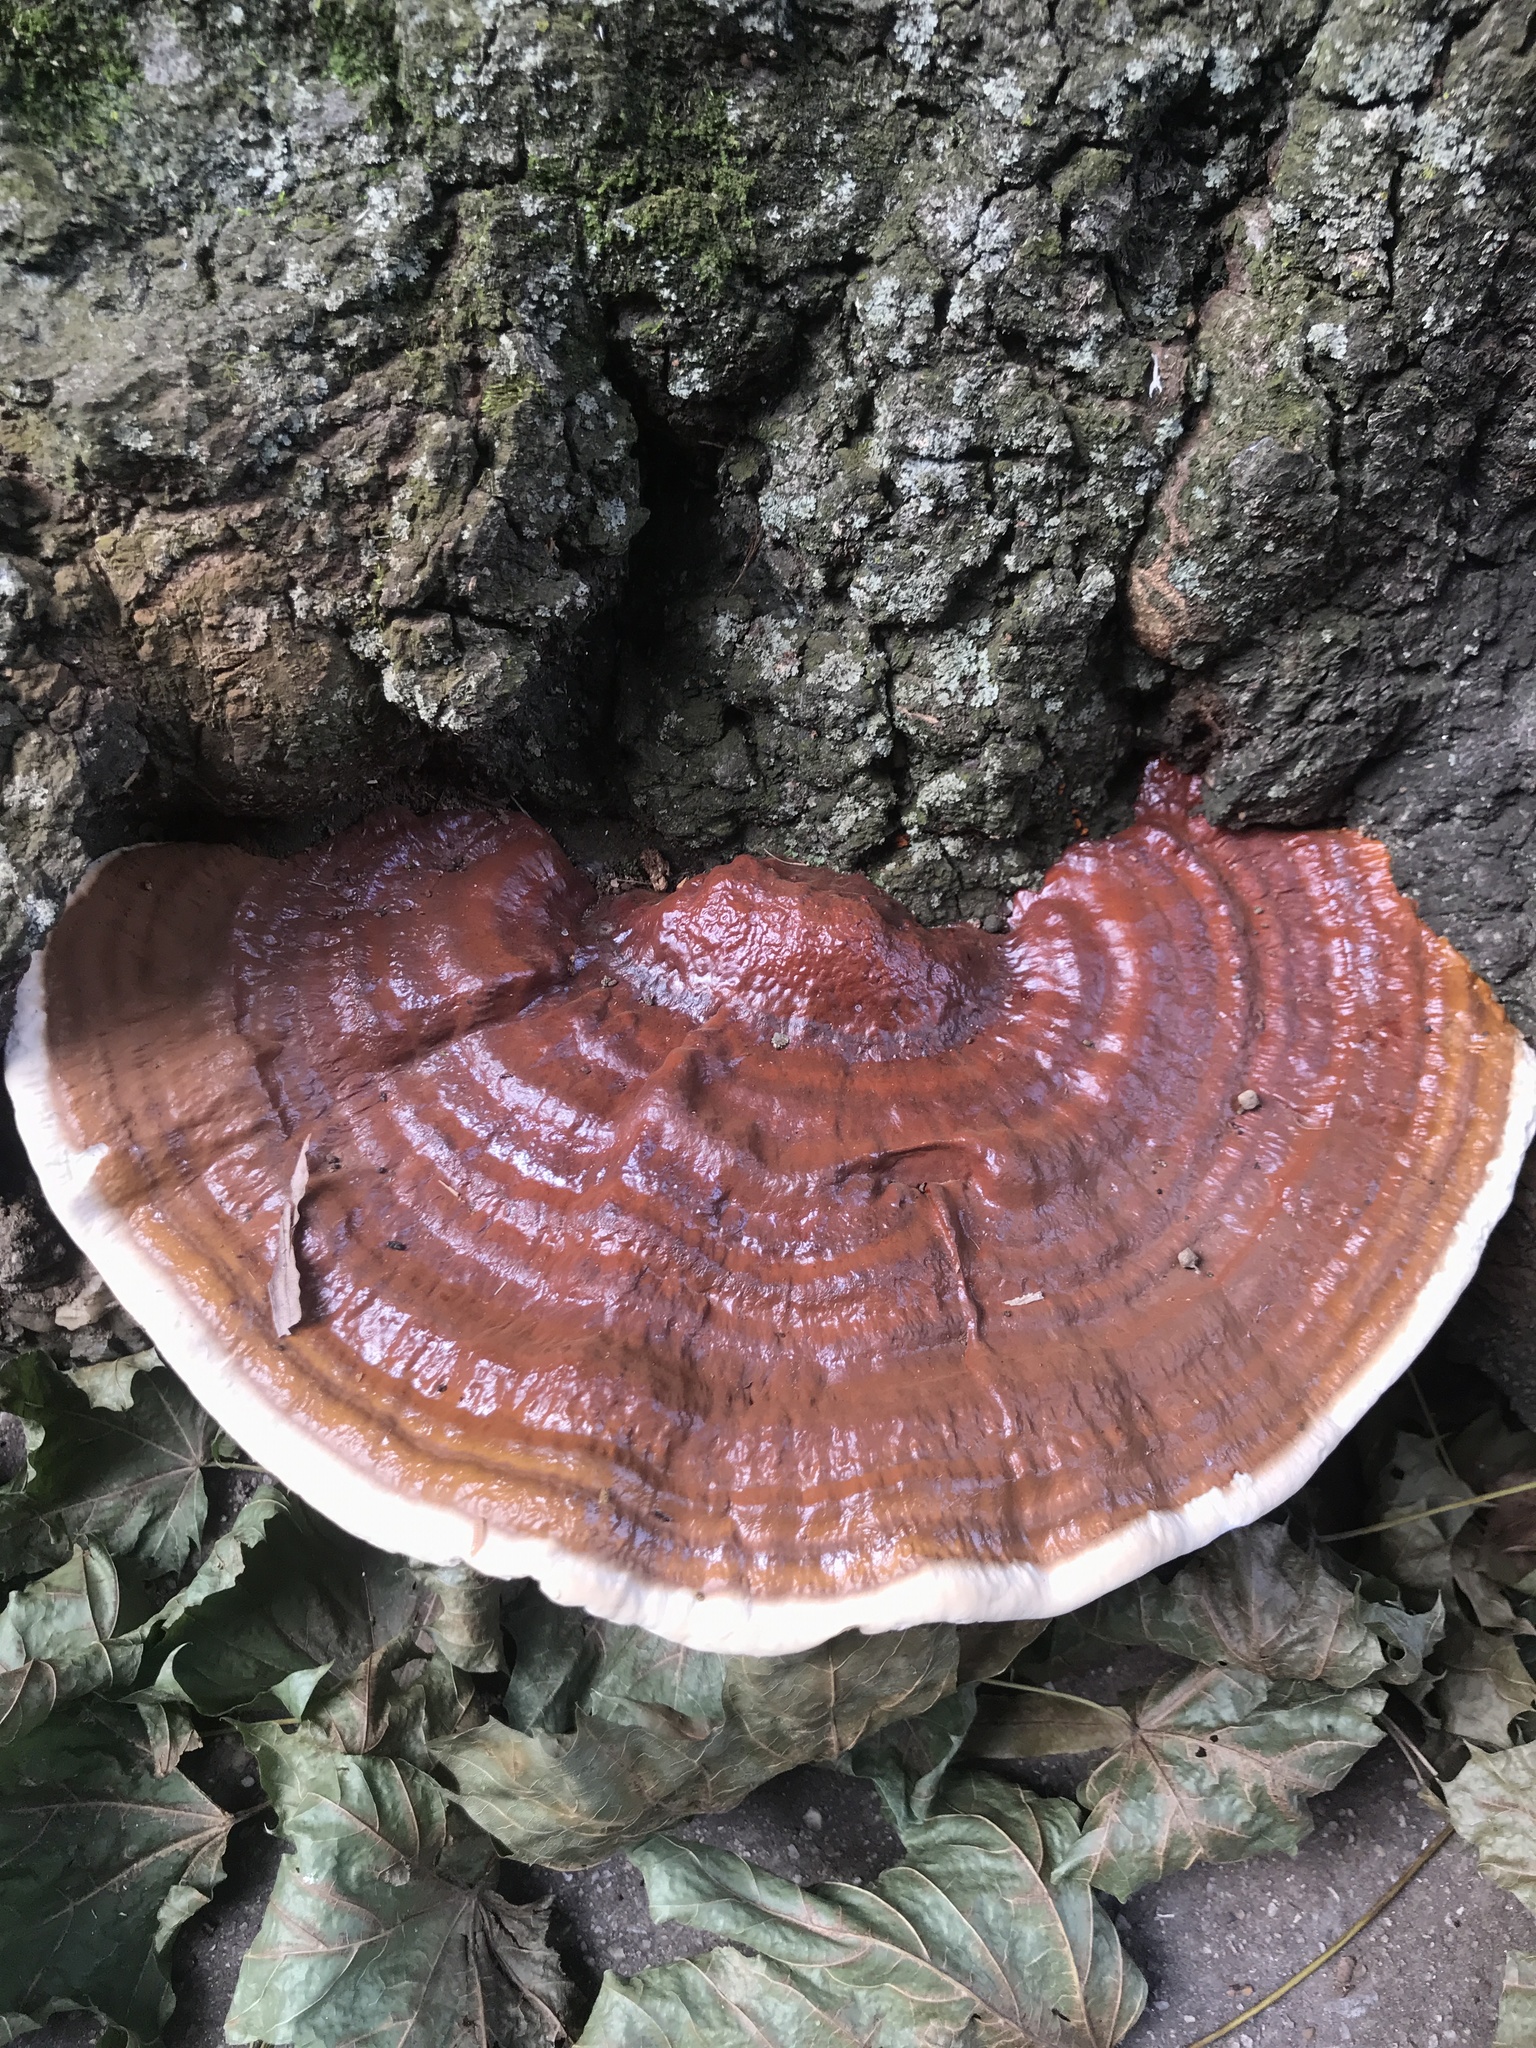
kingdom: Fungi
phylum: Basidiomycota
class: Agaricomycetes
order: Polyporales
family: Polyporaceae
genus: Ganoderma
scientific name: Ganoderma resinaceum
